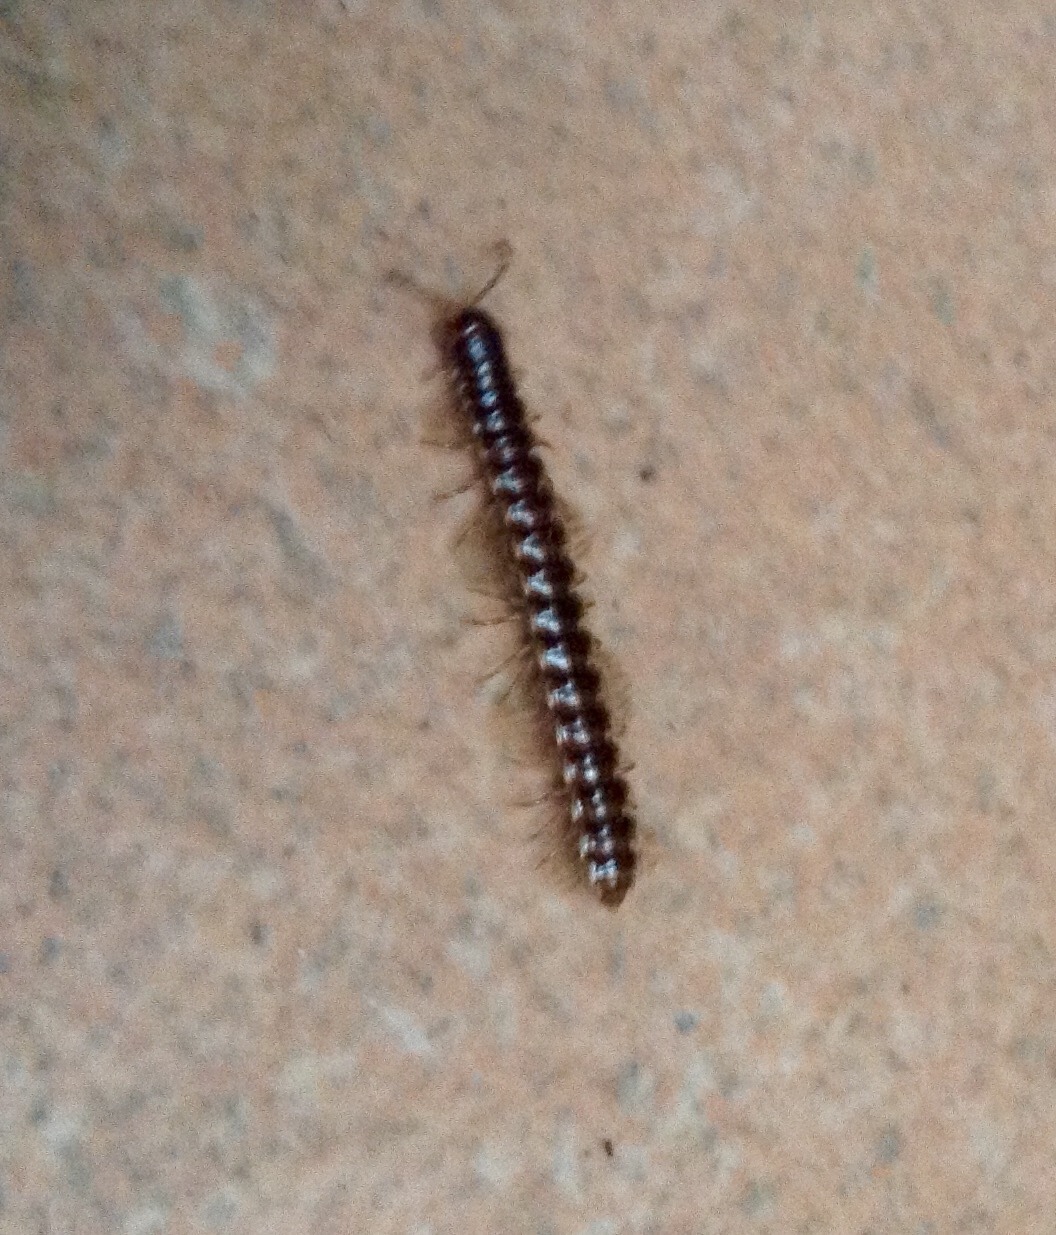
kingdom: Animalia
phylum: Arthropoda
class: Diplopoda
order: Polydesmida
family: Paradoxosomatidae
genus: Oxidus
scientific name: Oxidus gracilis
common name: Greenhouse millipede
